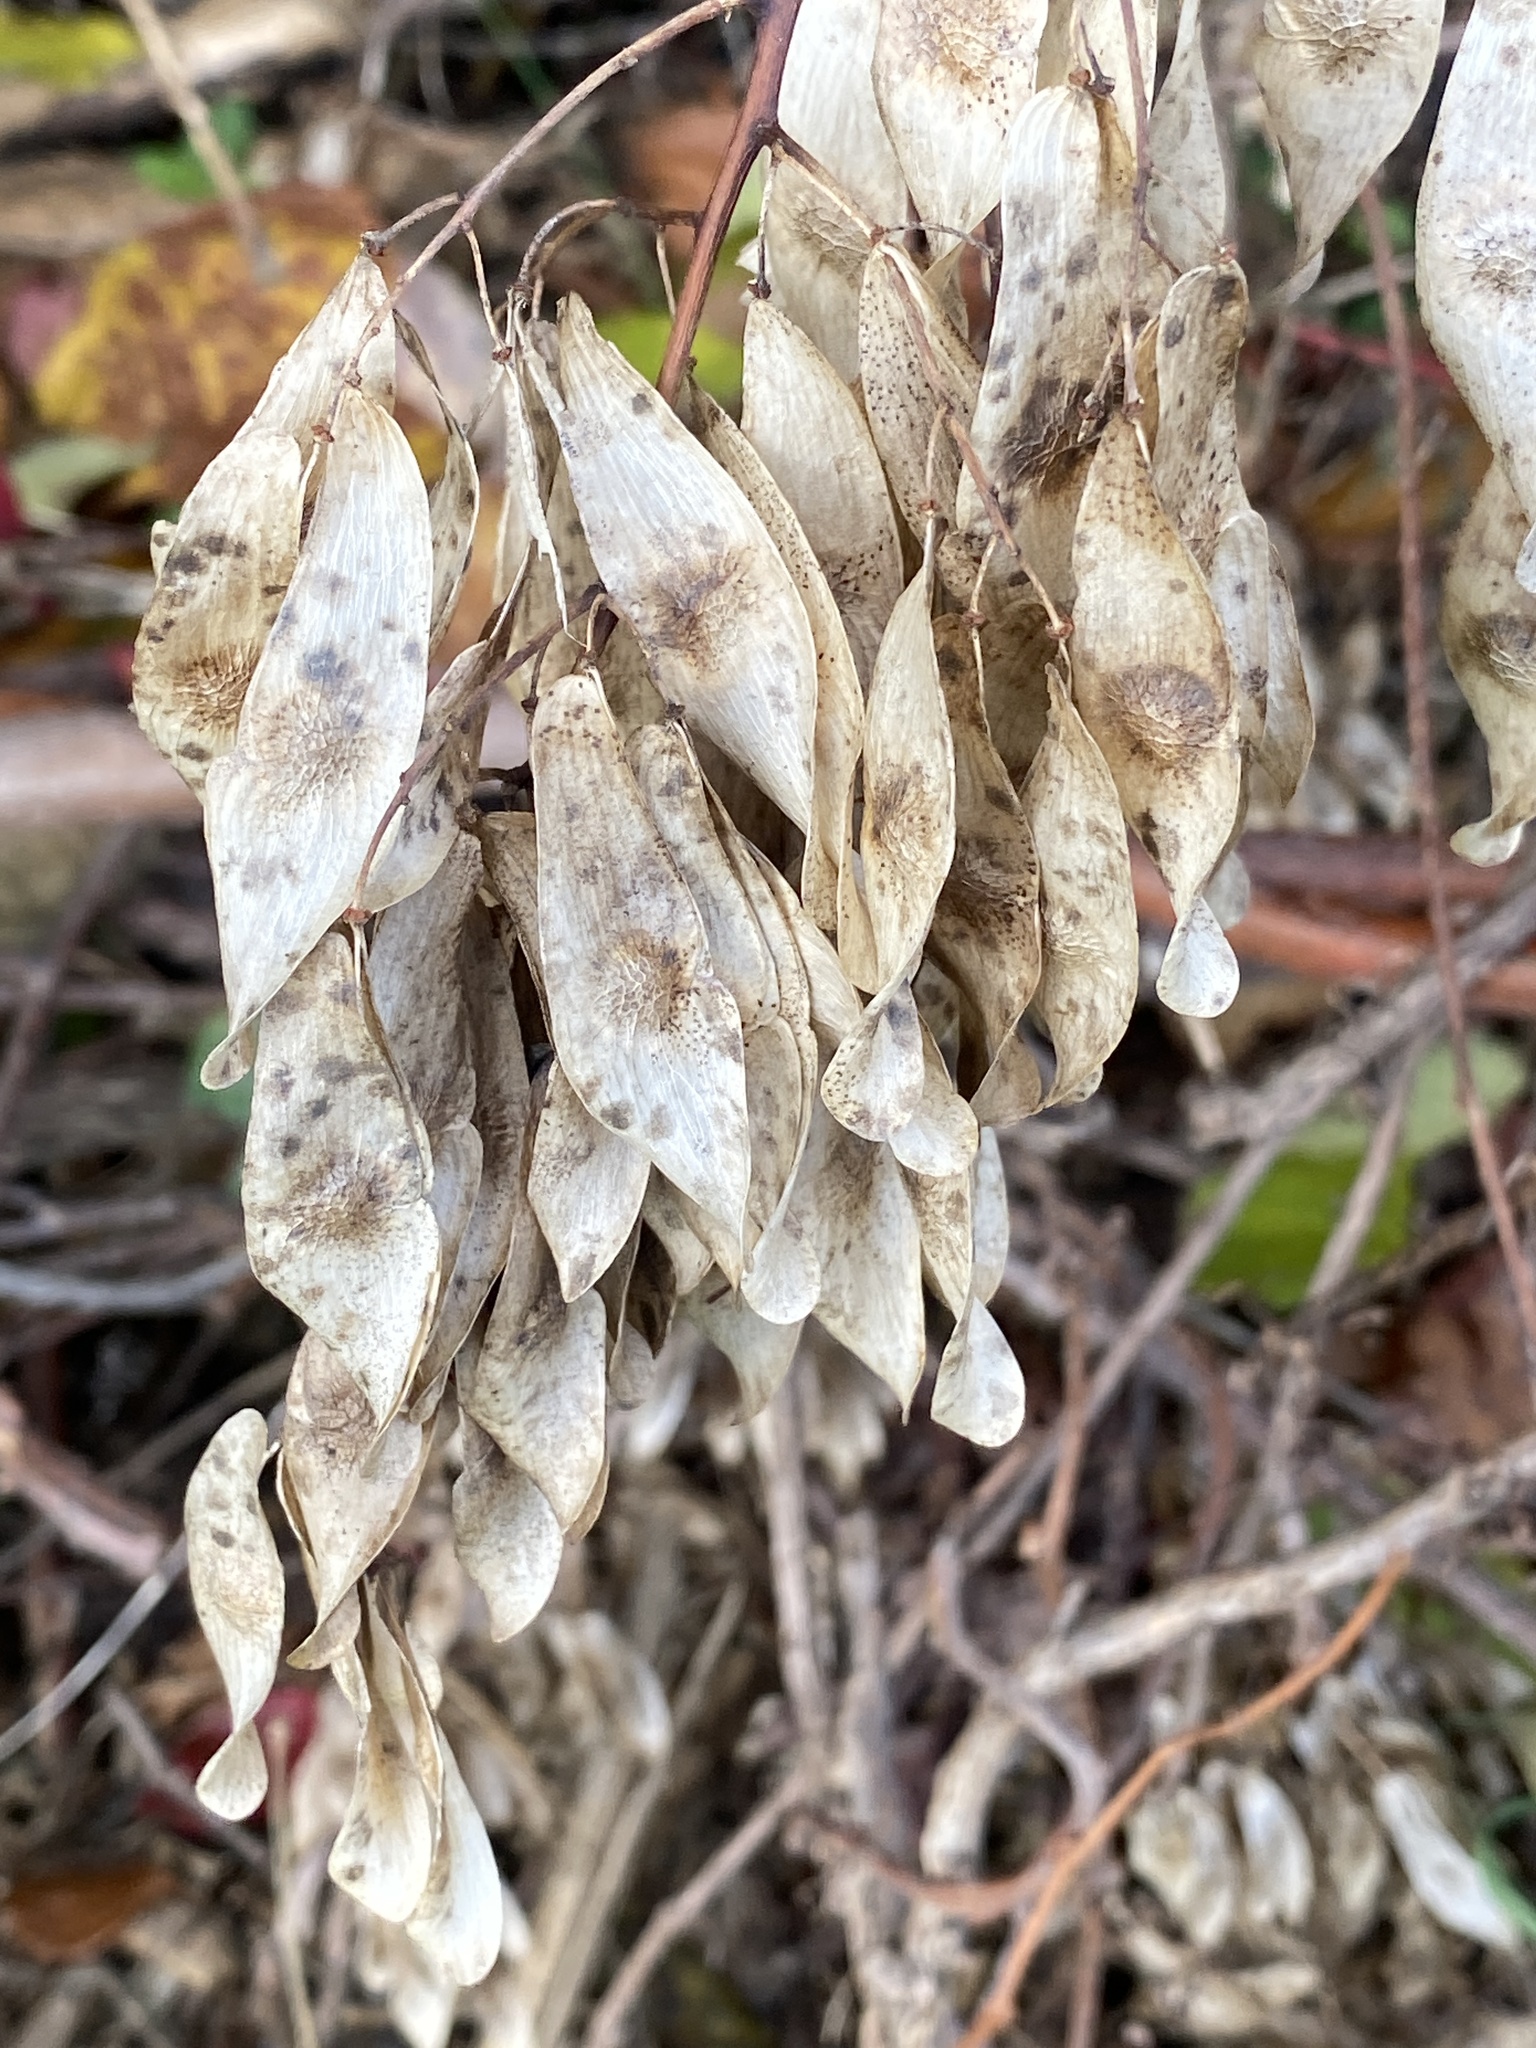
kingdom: Plantae
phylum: Tracheophyta
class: Magnoliopsida
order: Sapindales
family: Simaroubaceae
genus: Ailanthus
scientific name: Ailanthus altissima
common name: Tree-of-heaven
